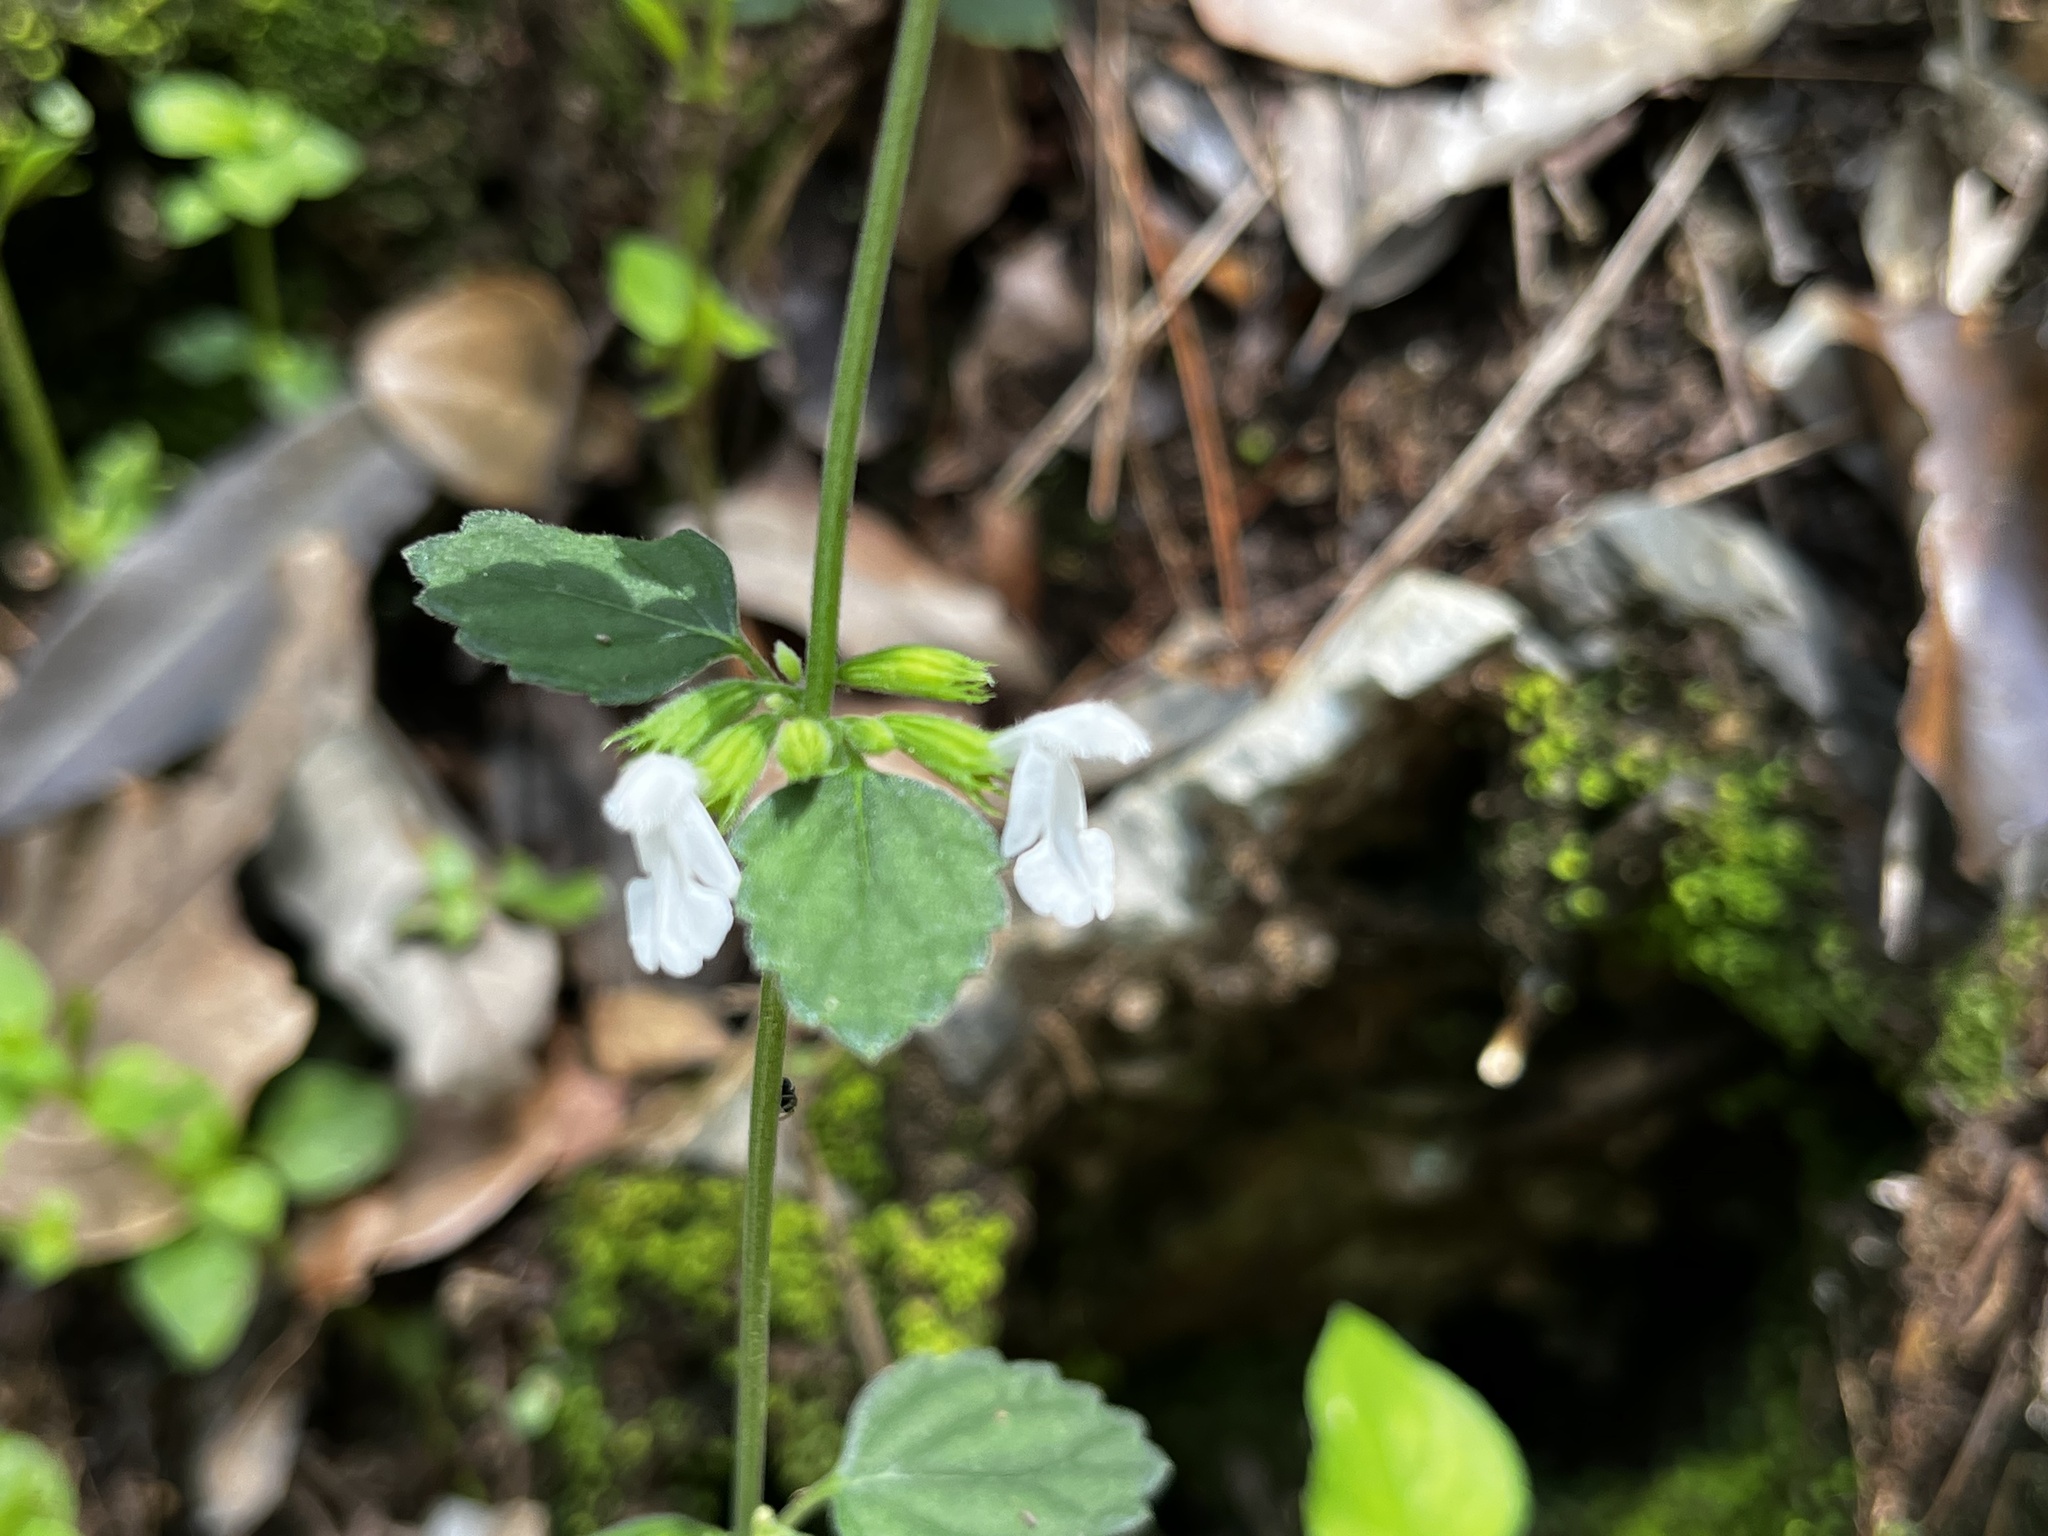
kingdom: Plantae
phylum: Tracheophyta
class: Magnoliopsida
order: Lamiales
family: Lamiaceae
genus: Leucas
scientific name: Leucas chinensis
